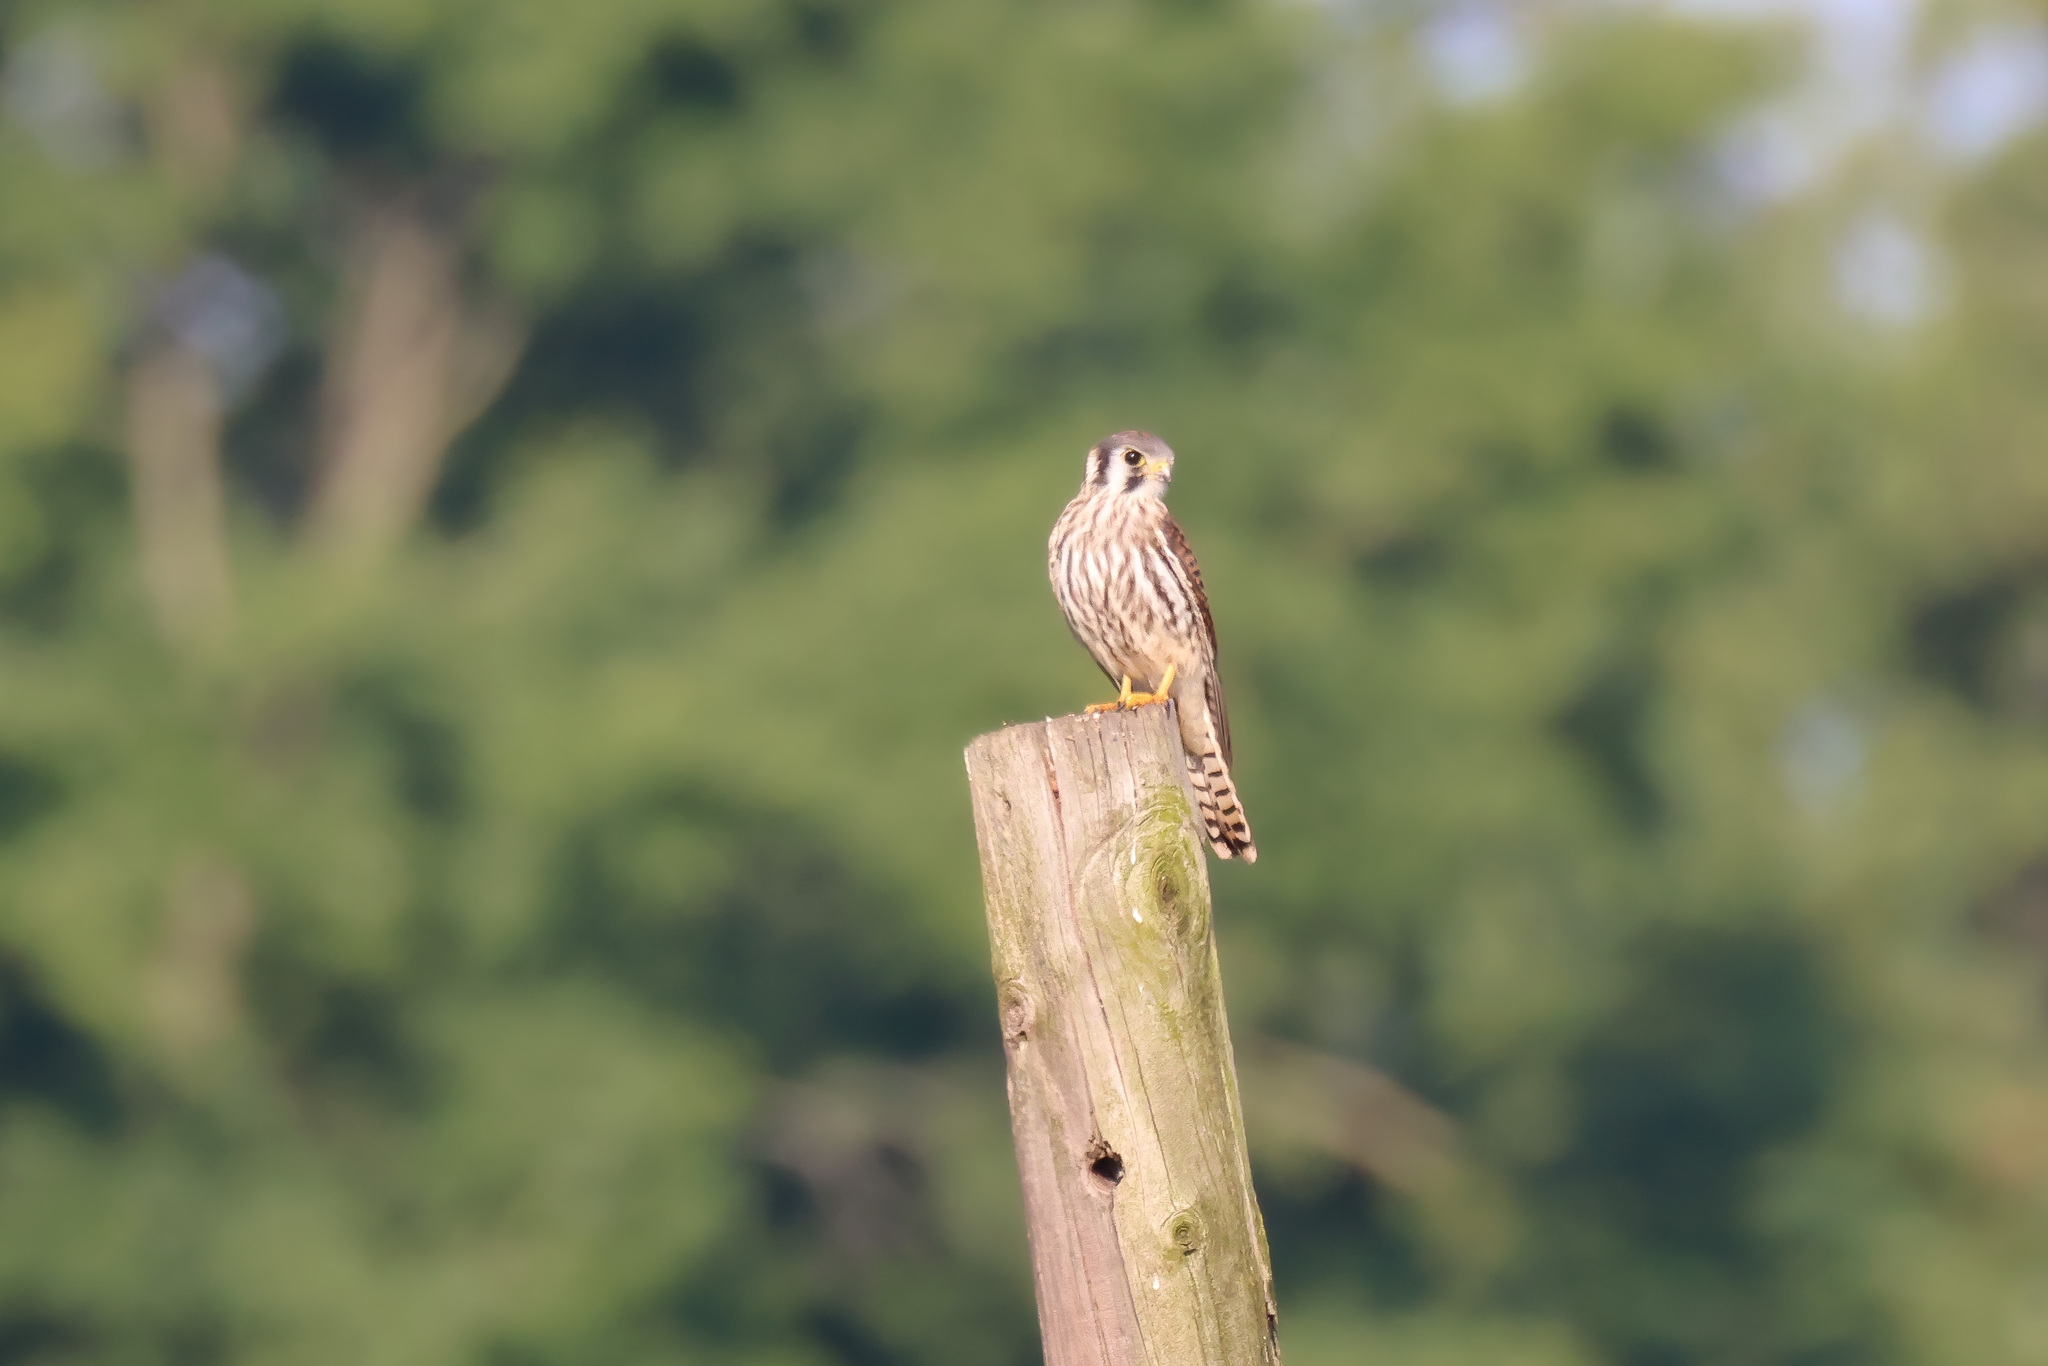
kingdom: Animalia
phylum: Chordata
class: Aves
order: Falconiformes
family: Falconidae
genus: Falco
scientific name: Falco sparverius
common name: American kestrel
